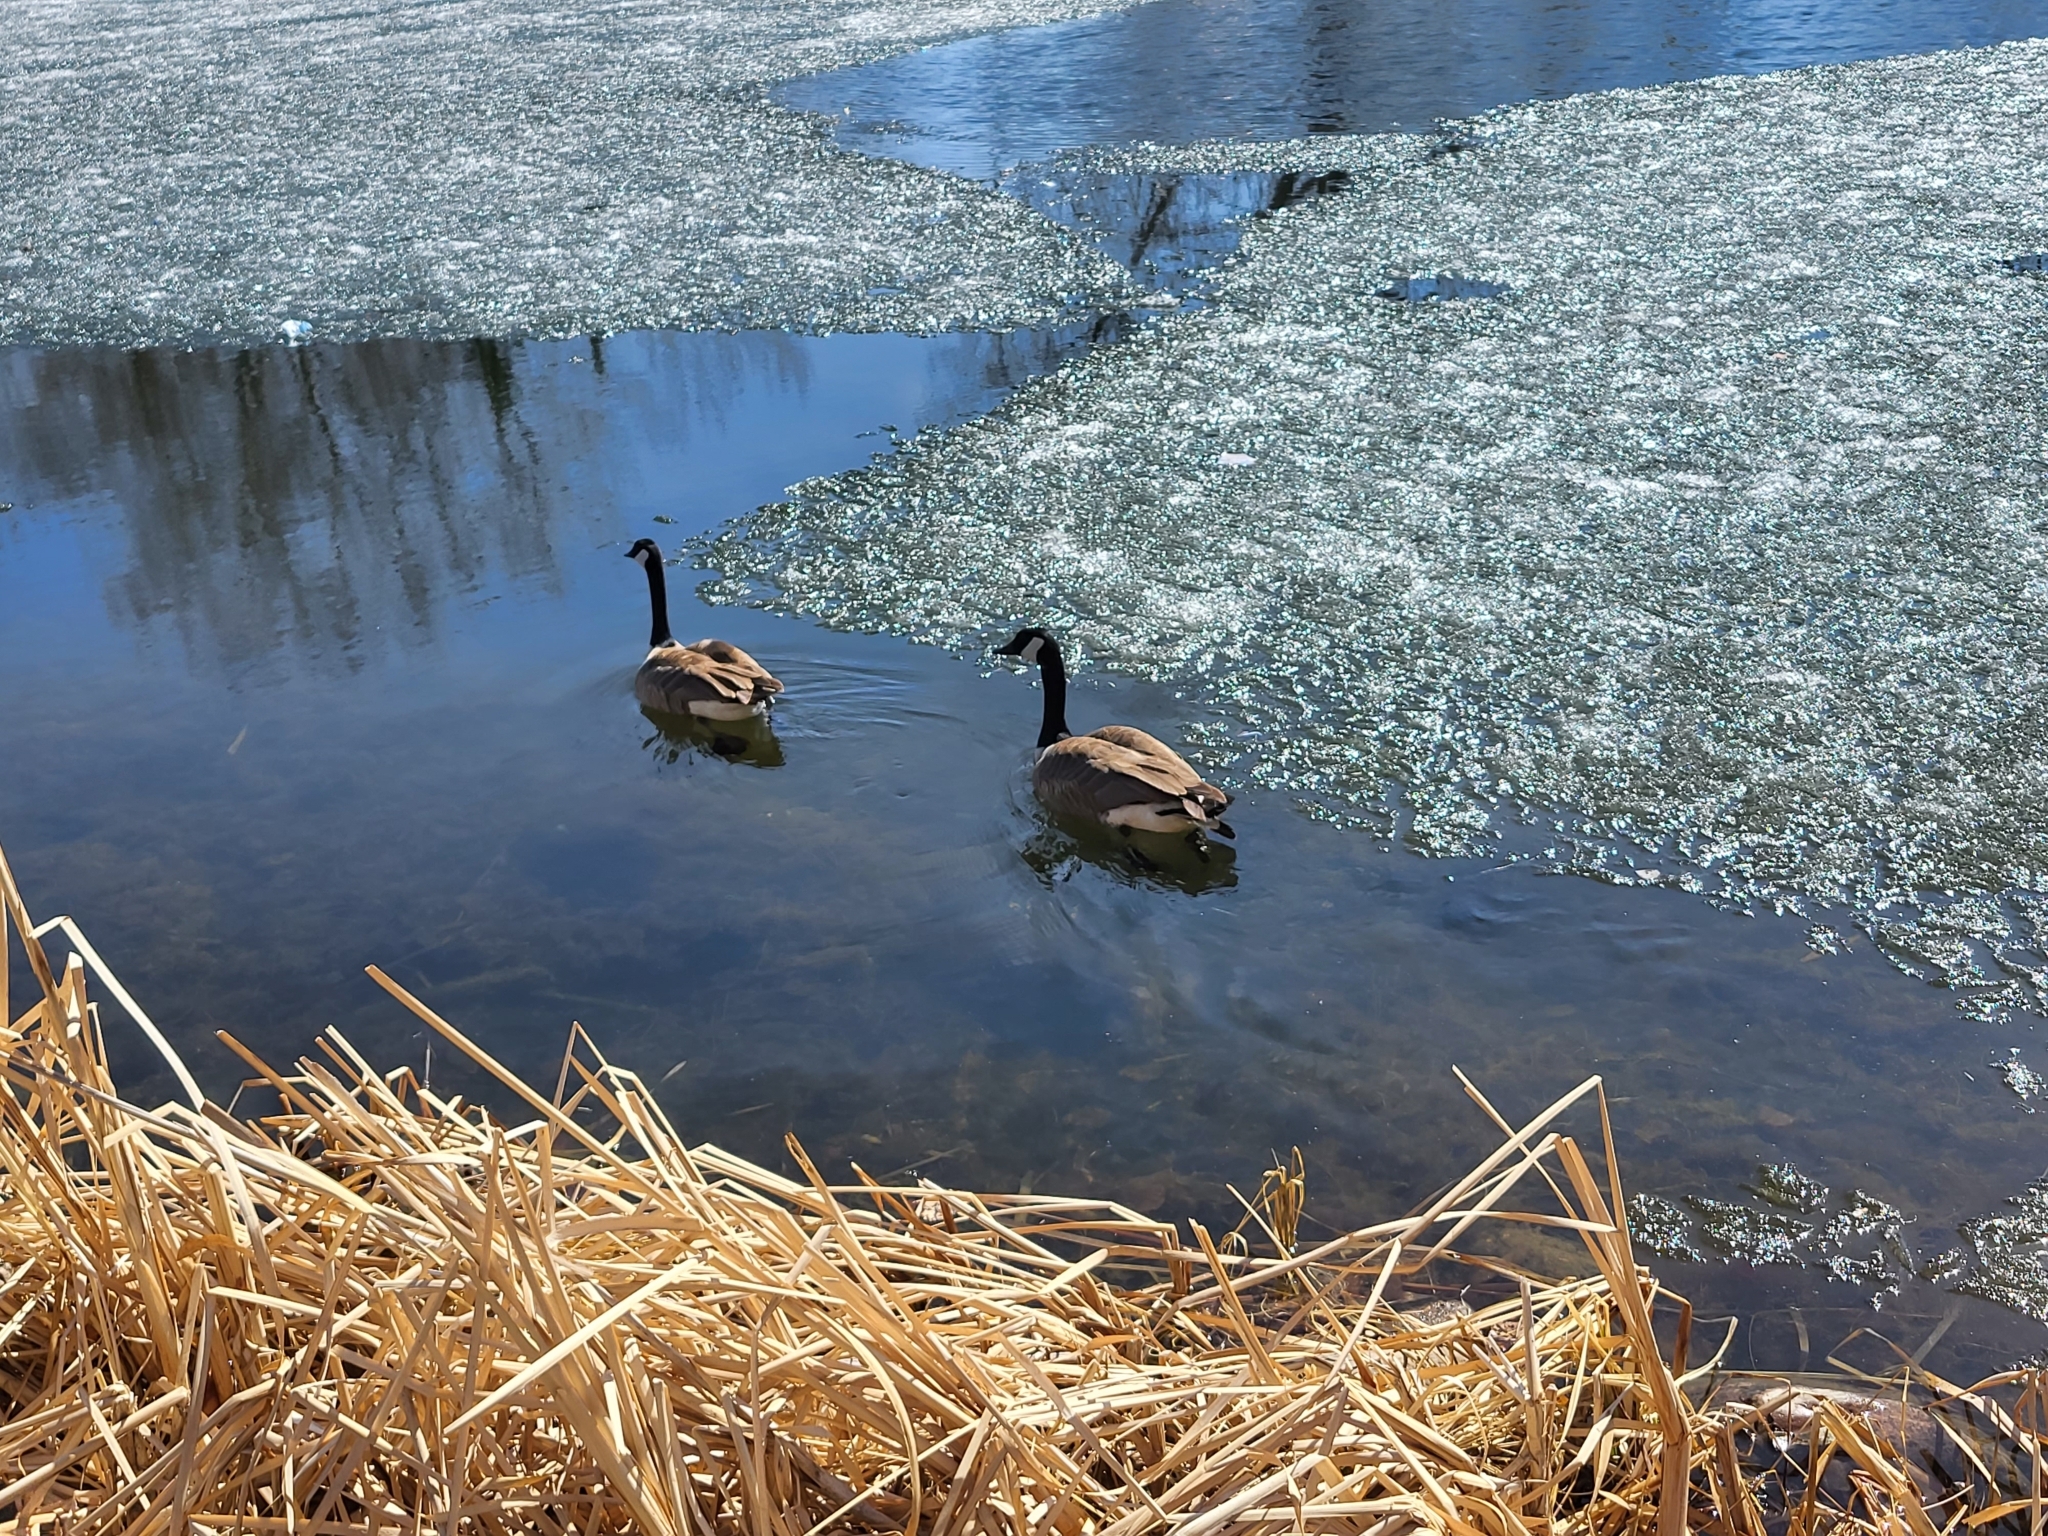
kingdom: Animalia
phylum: Chordata
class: Aves
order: Anseriformes
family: Anatidae
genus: Branta
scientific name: Branta canadensis
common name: Canada goose
